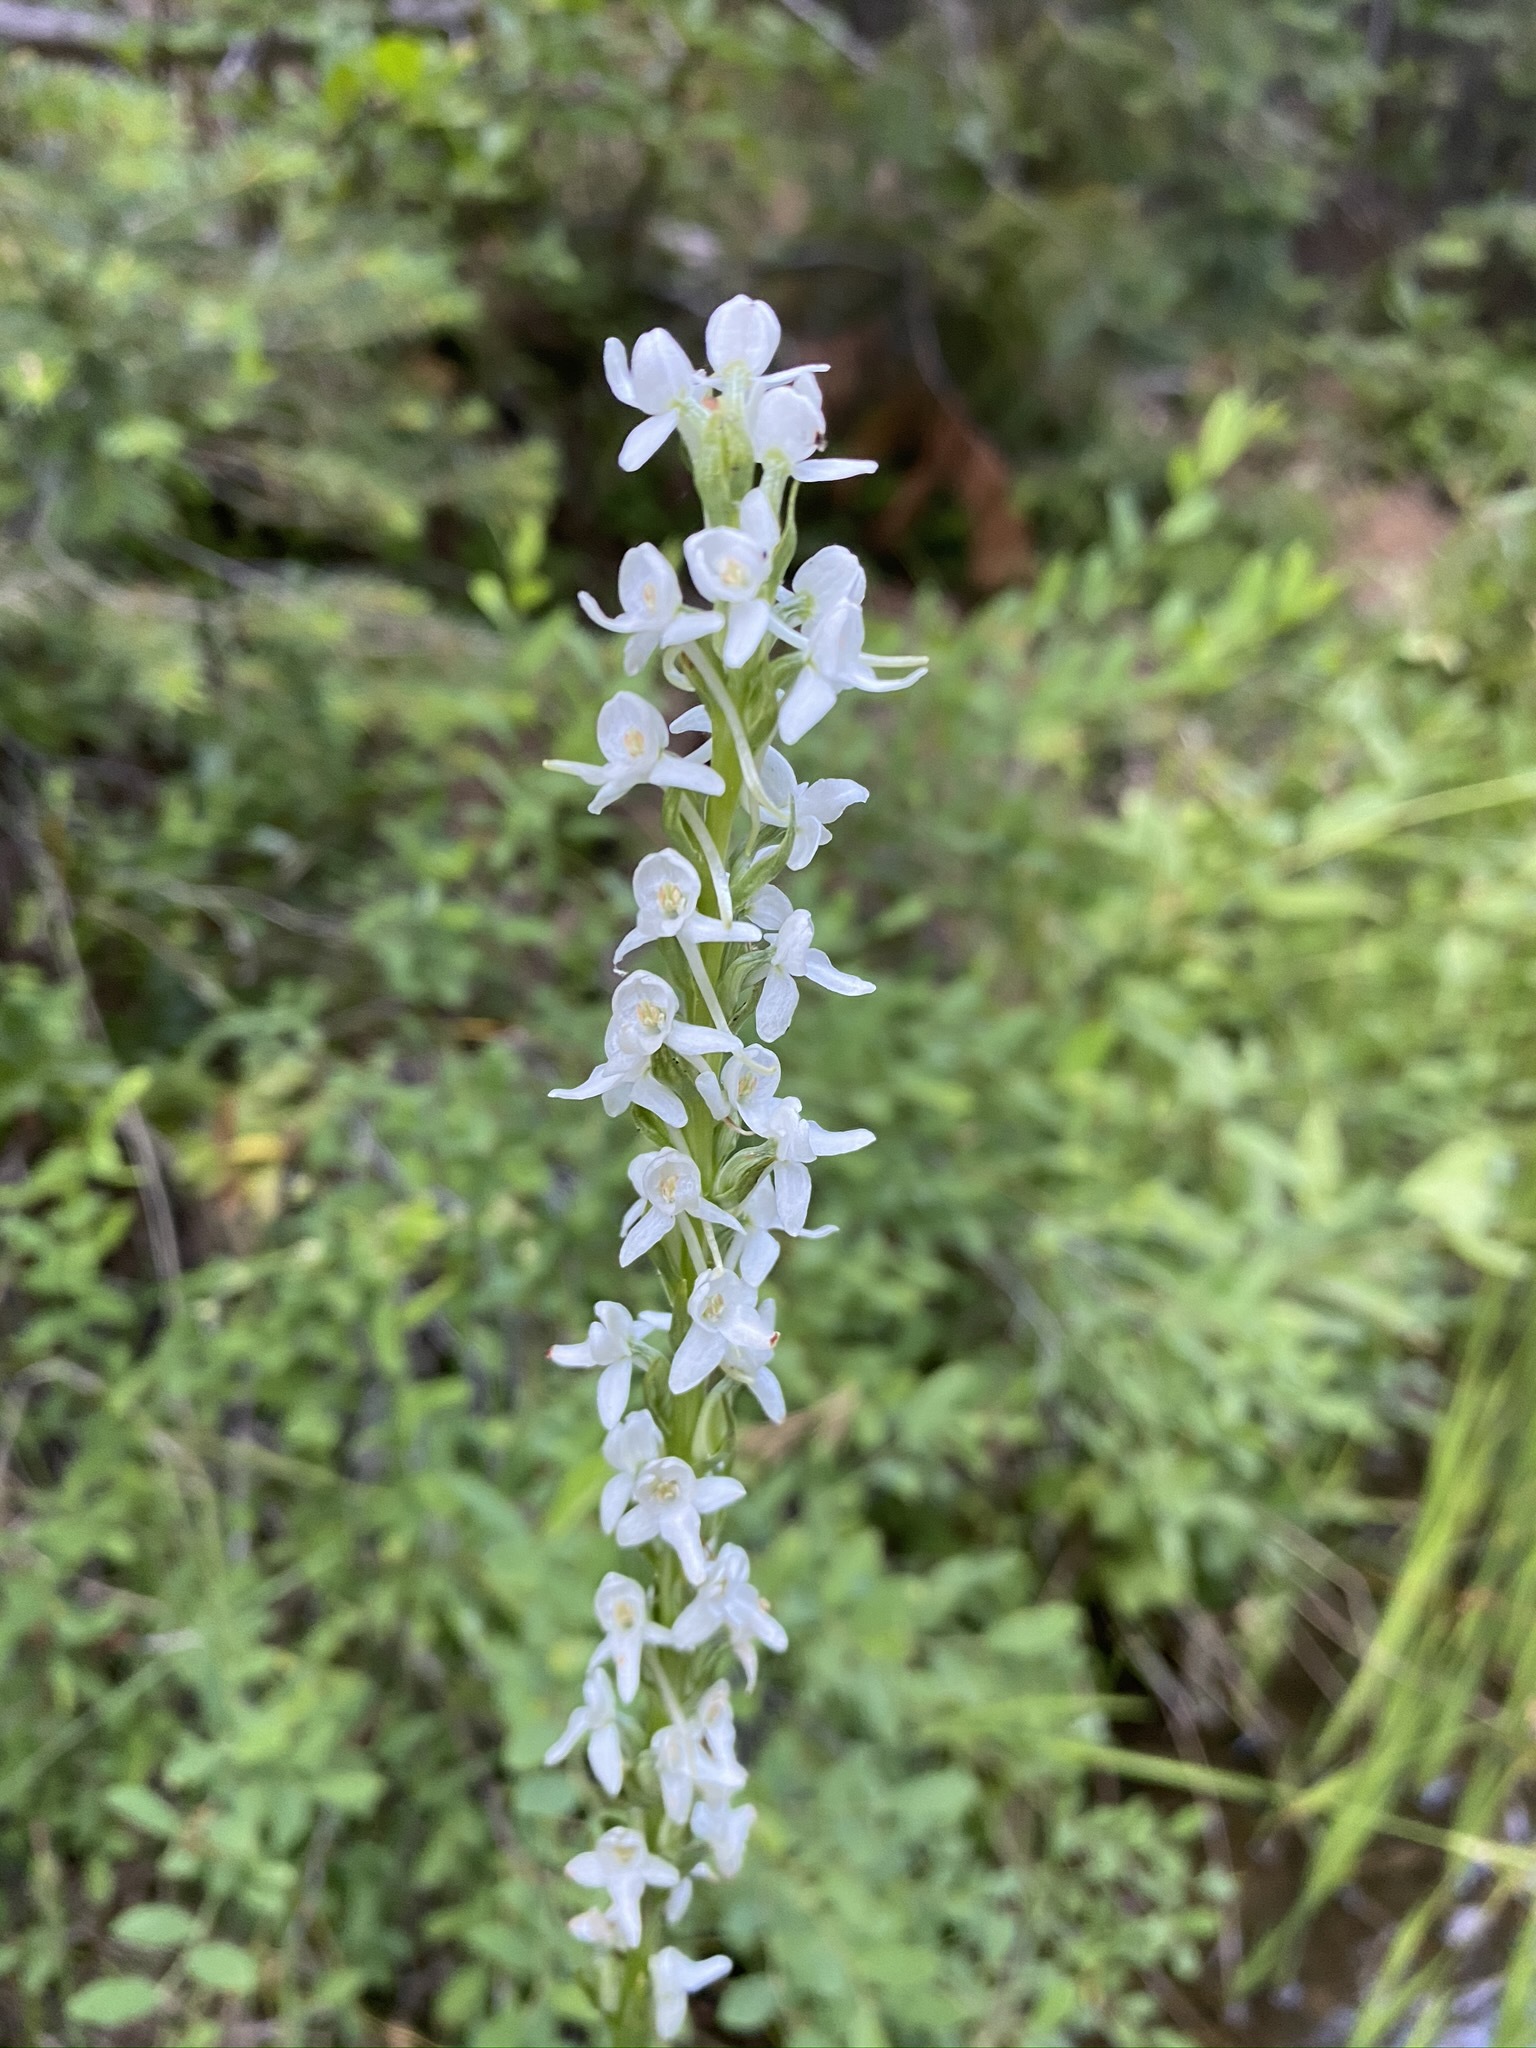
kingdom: Plantae
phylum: Tracheophyta
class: Liliopsida
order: Asparagales
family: Orchidaceae
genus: Platanthera
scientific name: Platanthera dilatata
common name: Bog candles
